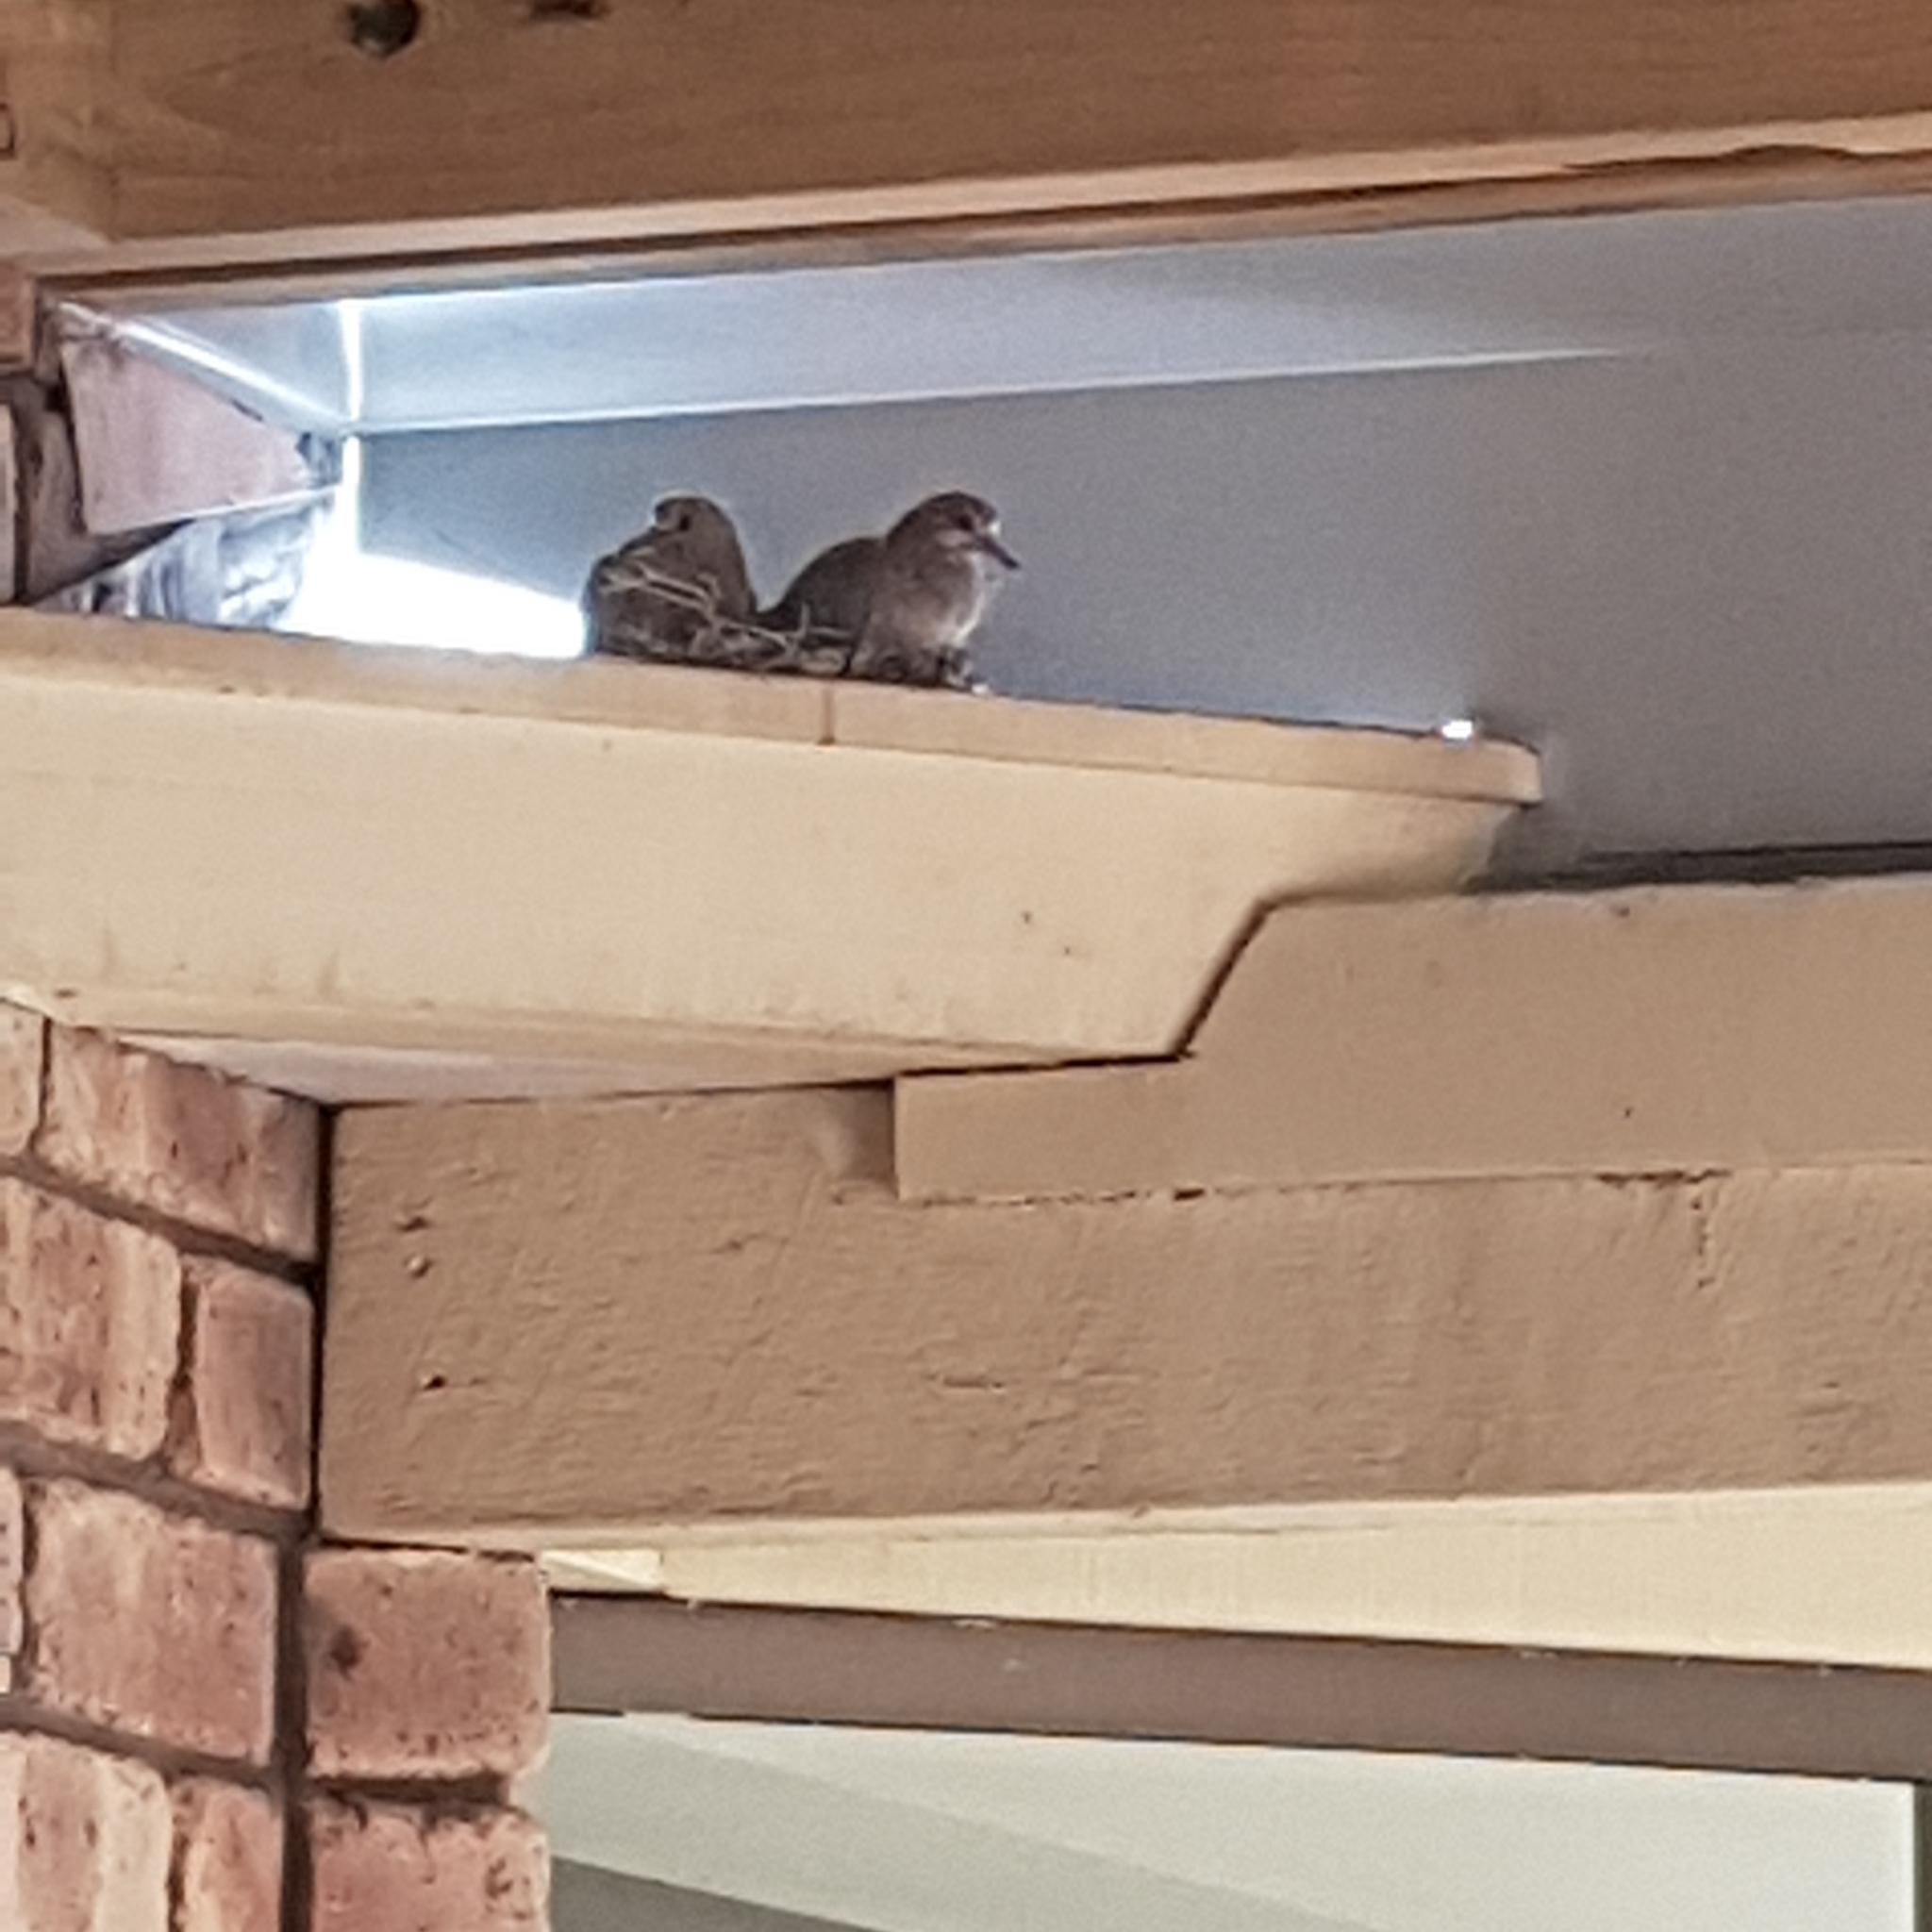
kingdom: Animalia
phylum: Chordata
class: Aves
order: Columbiformes
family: Columbidae
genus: Spilopelia
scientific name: Spilopelia senegalensis
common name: Laughing dove
